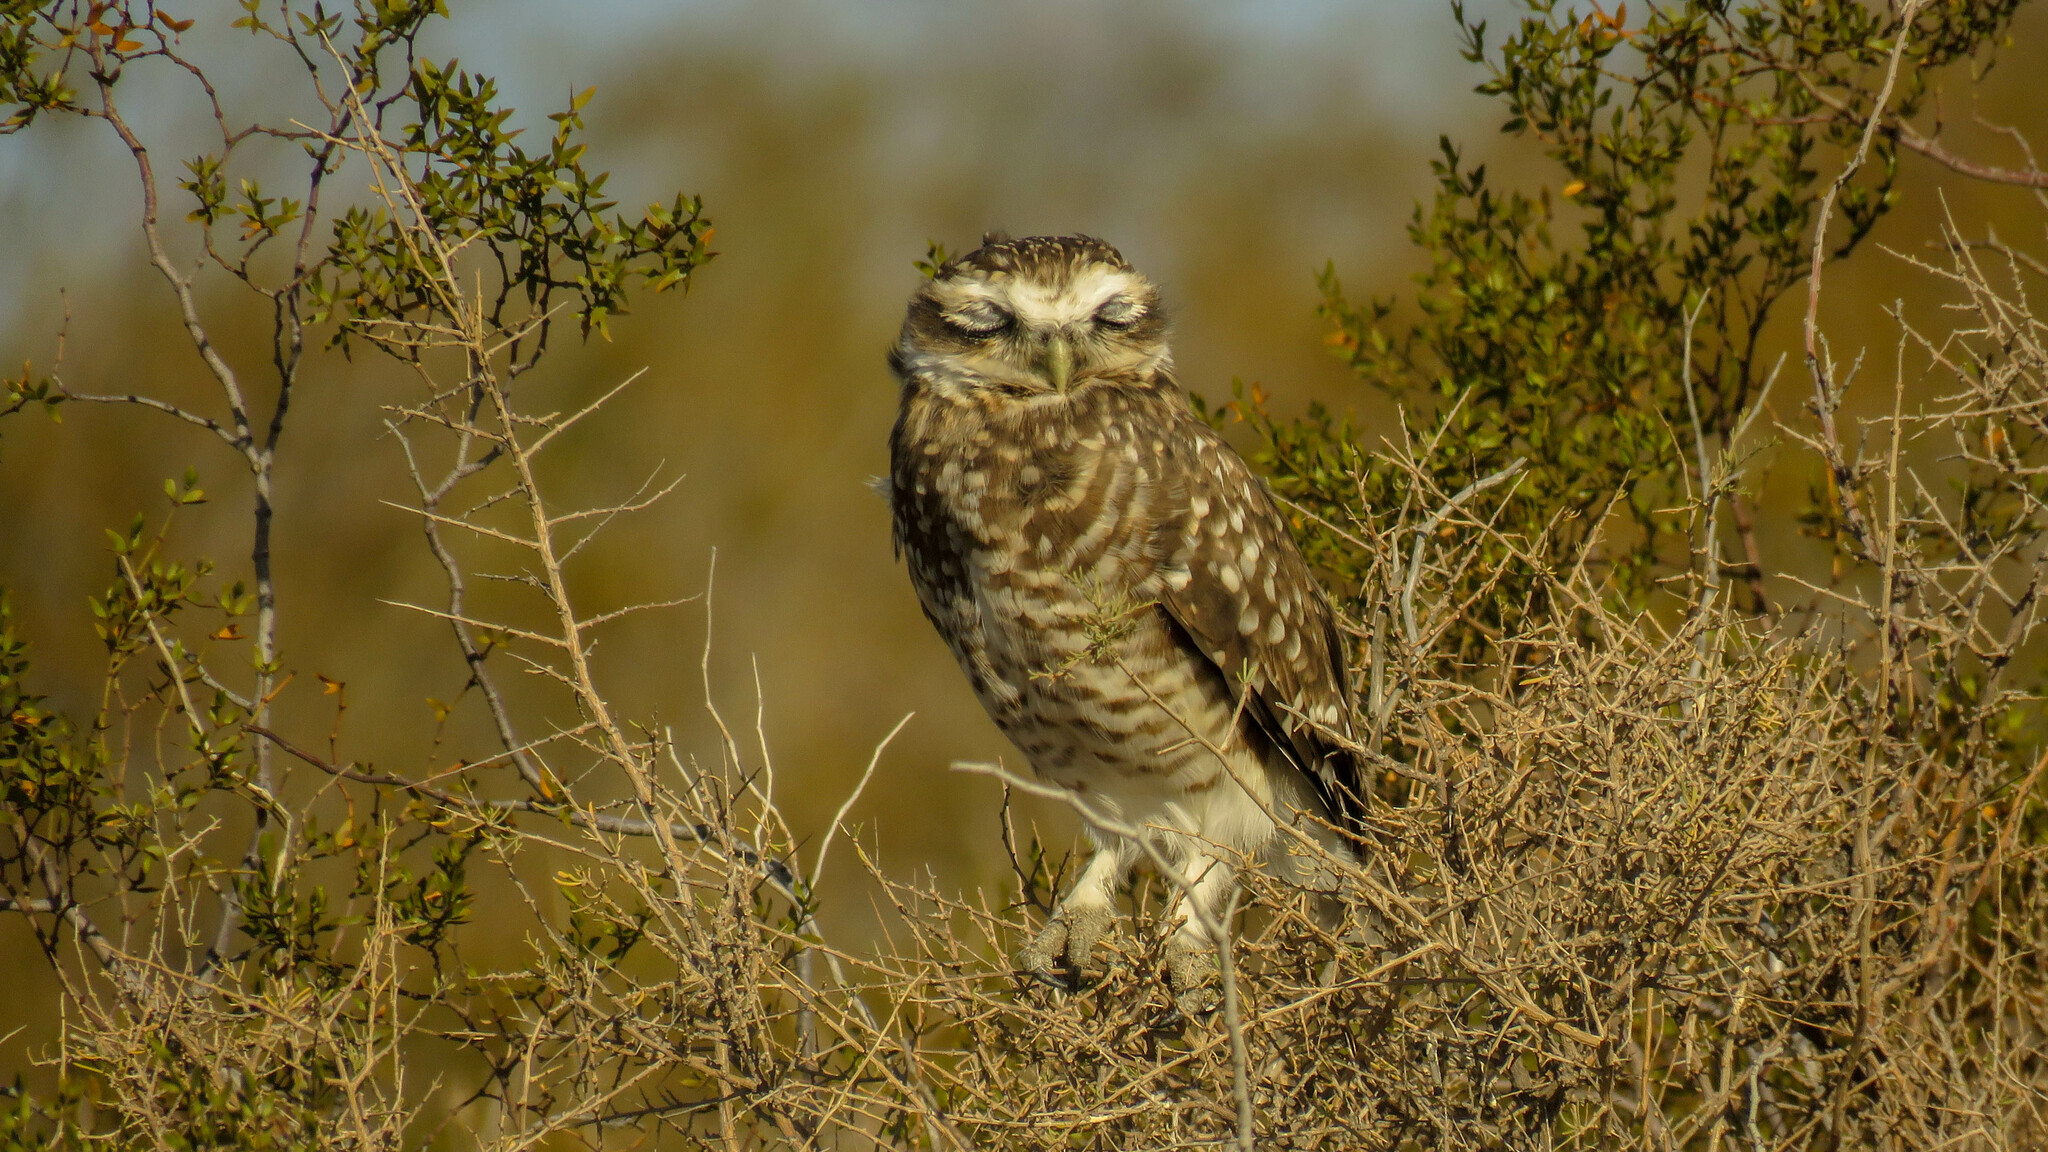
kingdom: Animalia
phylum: Chordata
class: Aves
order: Strigiformes
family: Strigidae
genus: Athene
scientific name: Athene cunicularia
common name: Burrowing owl
